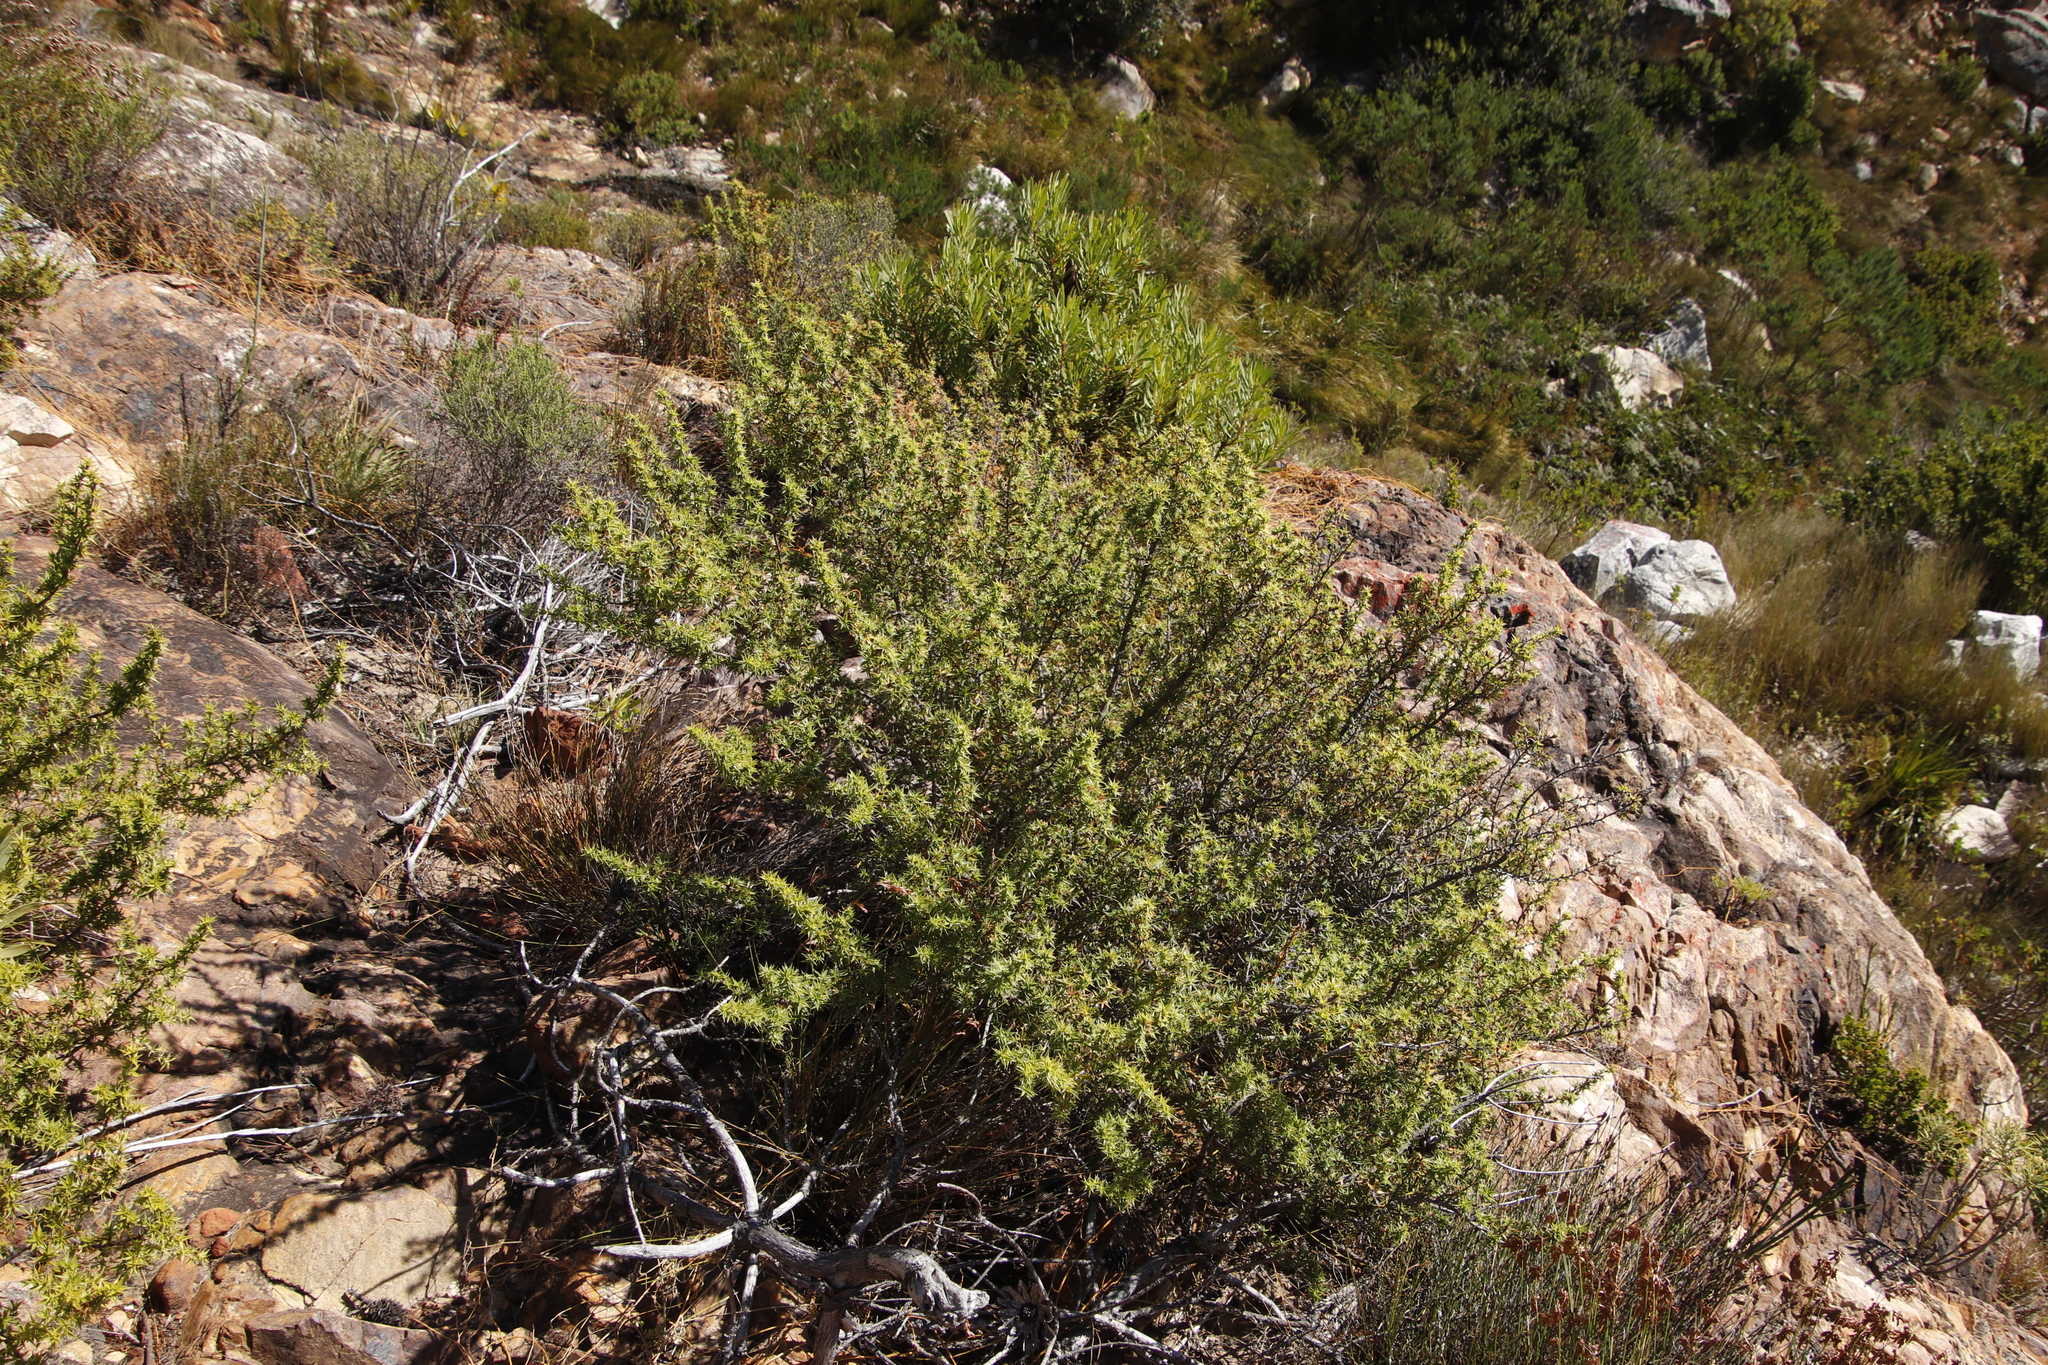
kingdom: Plantae
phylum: Tracheophyta
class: Magnoliopsida
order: Rosales
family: Rosaceae
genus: Cliffortia
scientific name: Cliffortia ruscifolia
